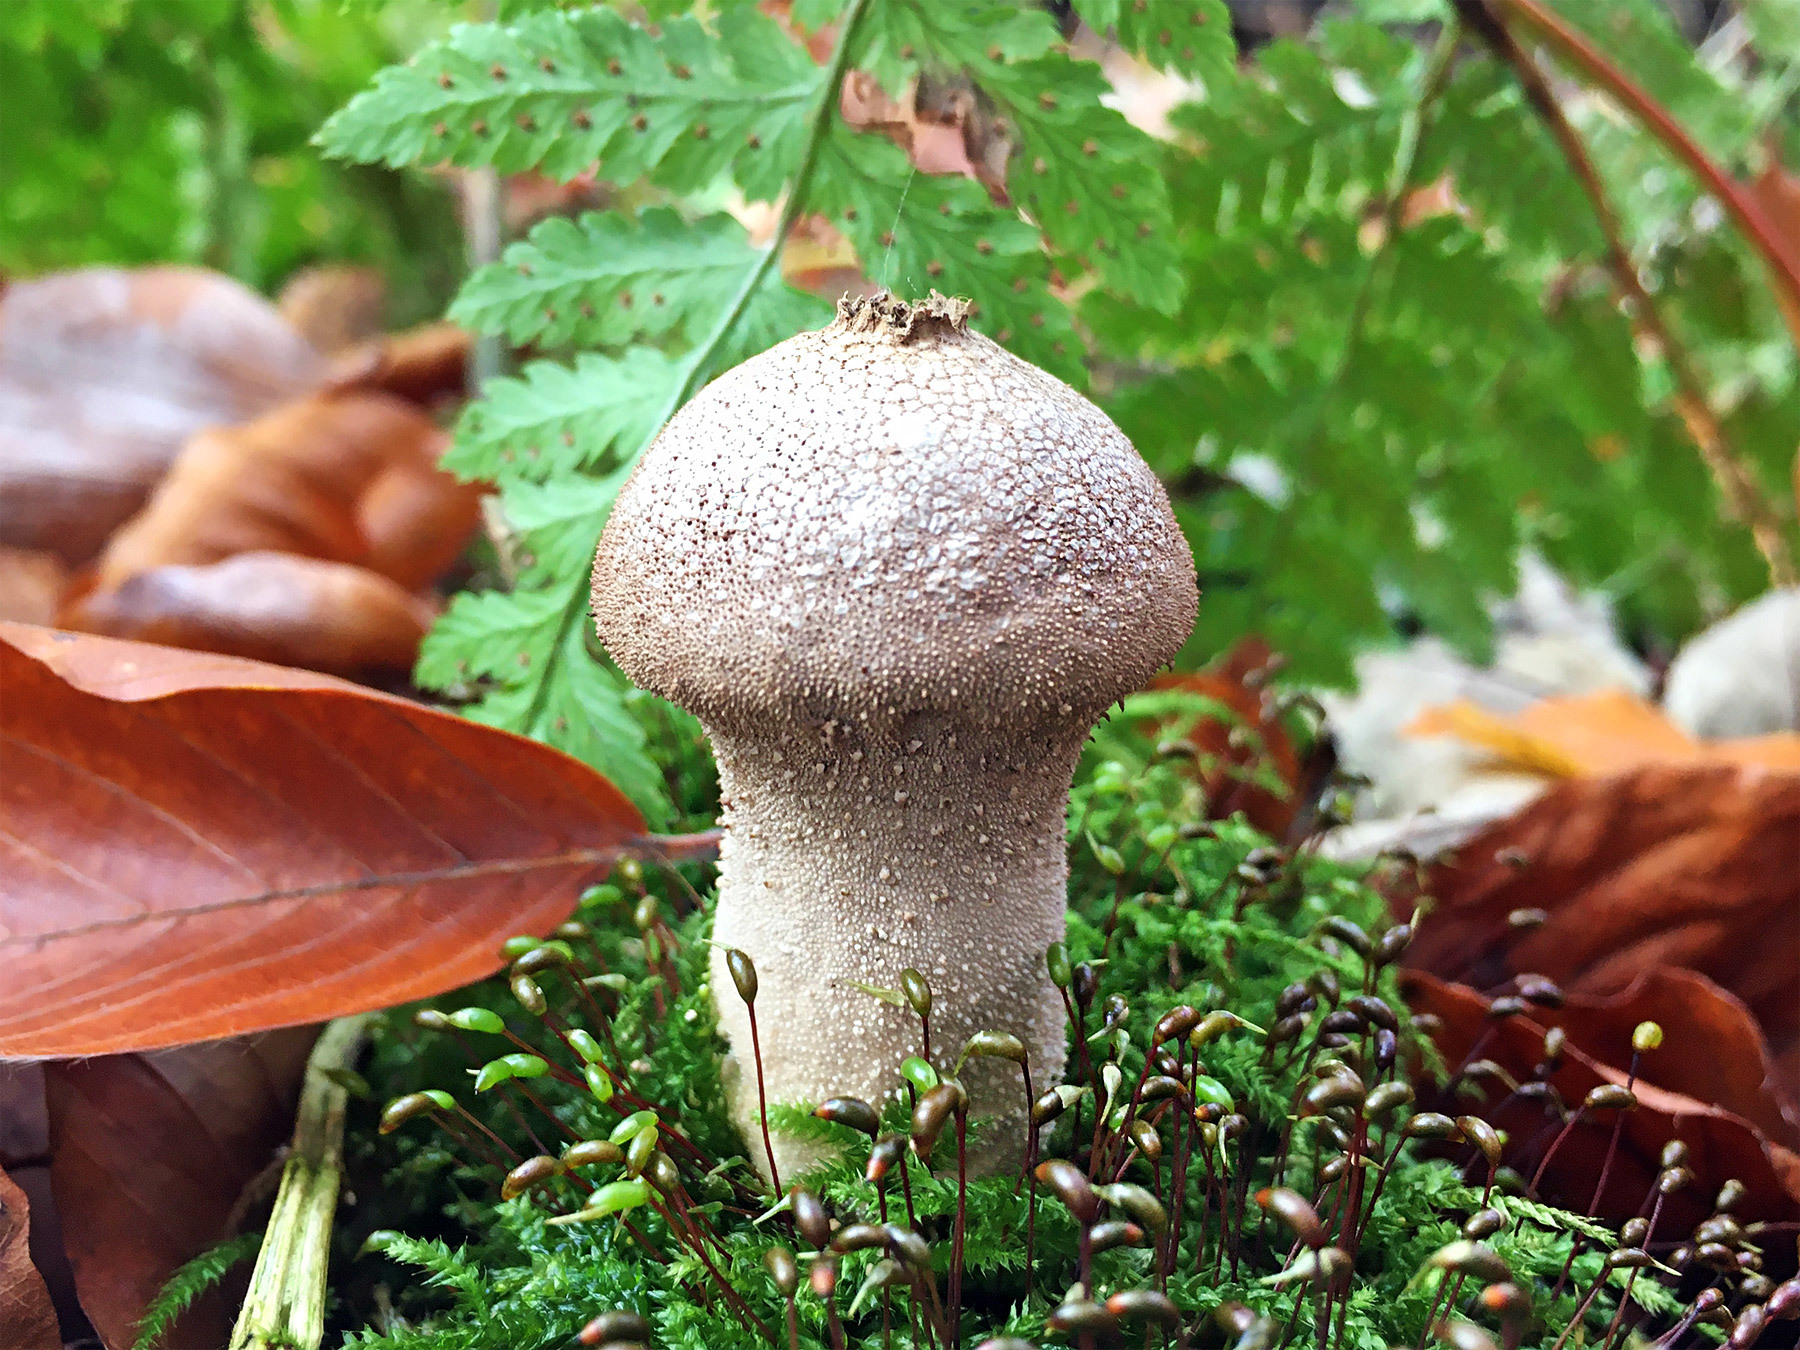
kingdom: Fungi
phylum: Basidiomycota
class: Agaricomycetes
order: Agaricales
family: Lycoperdaceae
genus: Lycoperdon
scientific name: Lycoperdon perlatum
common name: Common puffball
